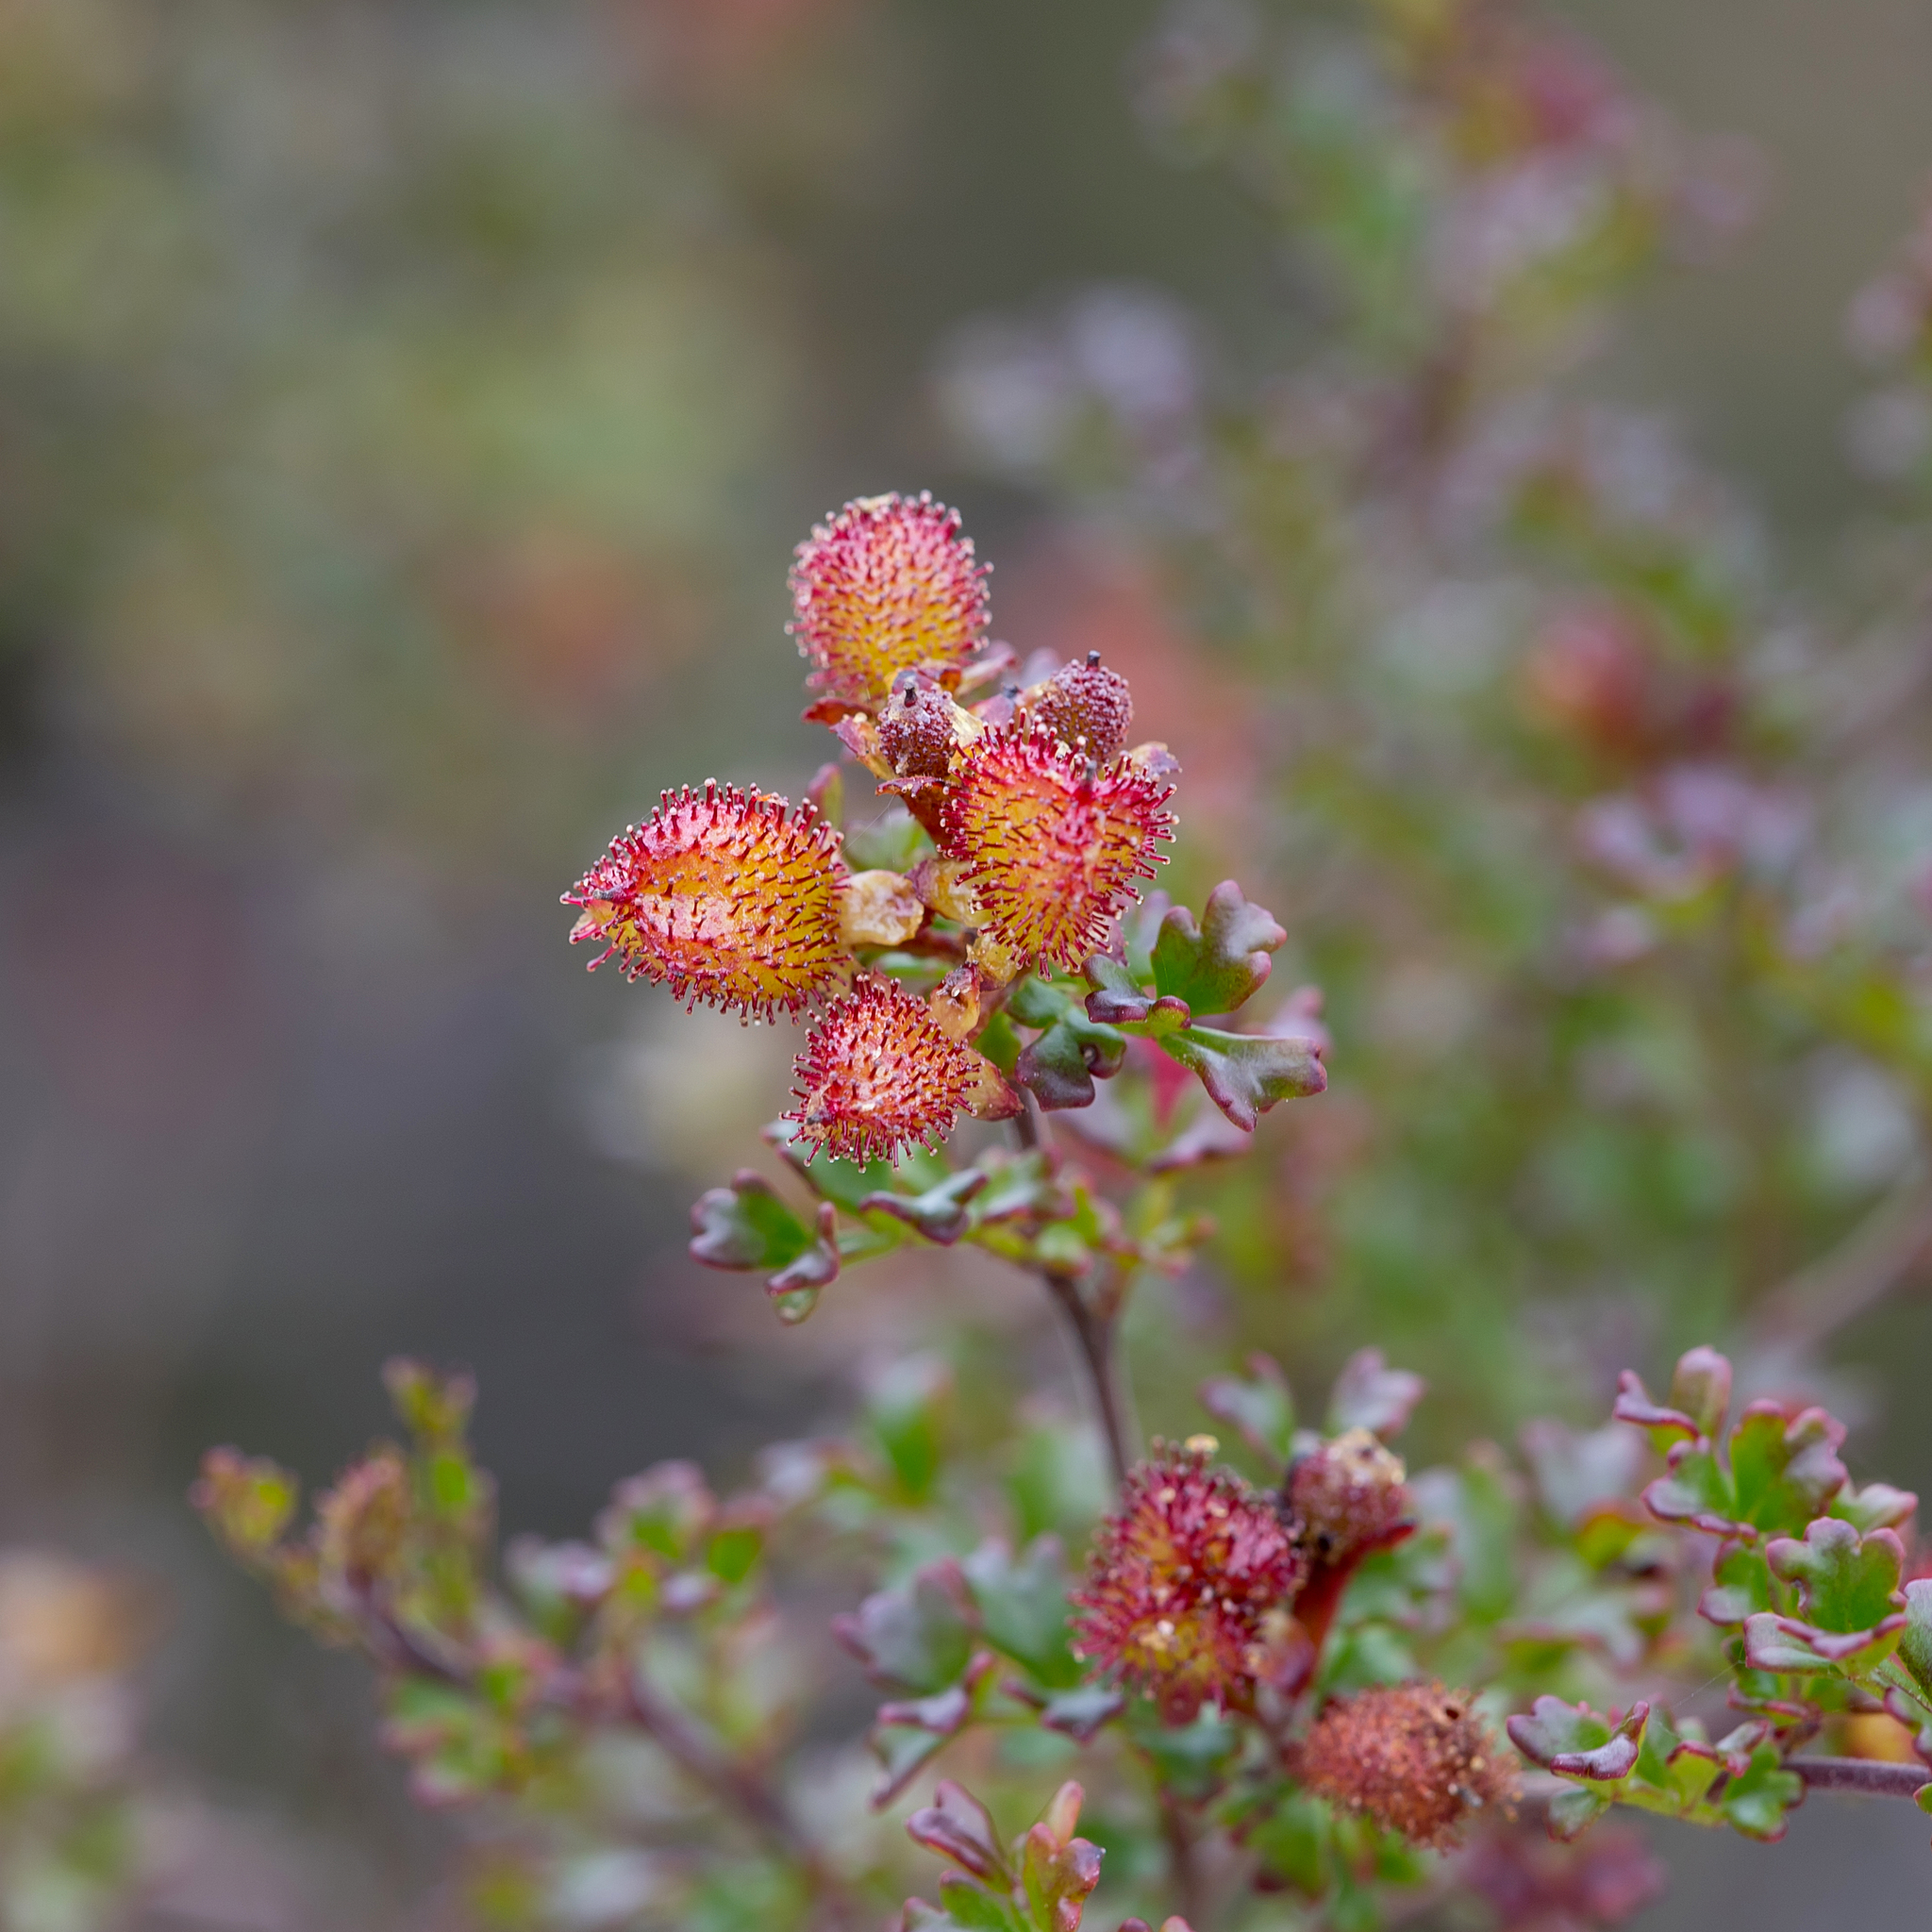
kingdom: Plantae
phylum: Tracheophyta
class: Magnoliopsida
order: Sapindales
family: Sapindaceae
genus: Dodonaea
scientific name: Dodonaea humilis
